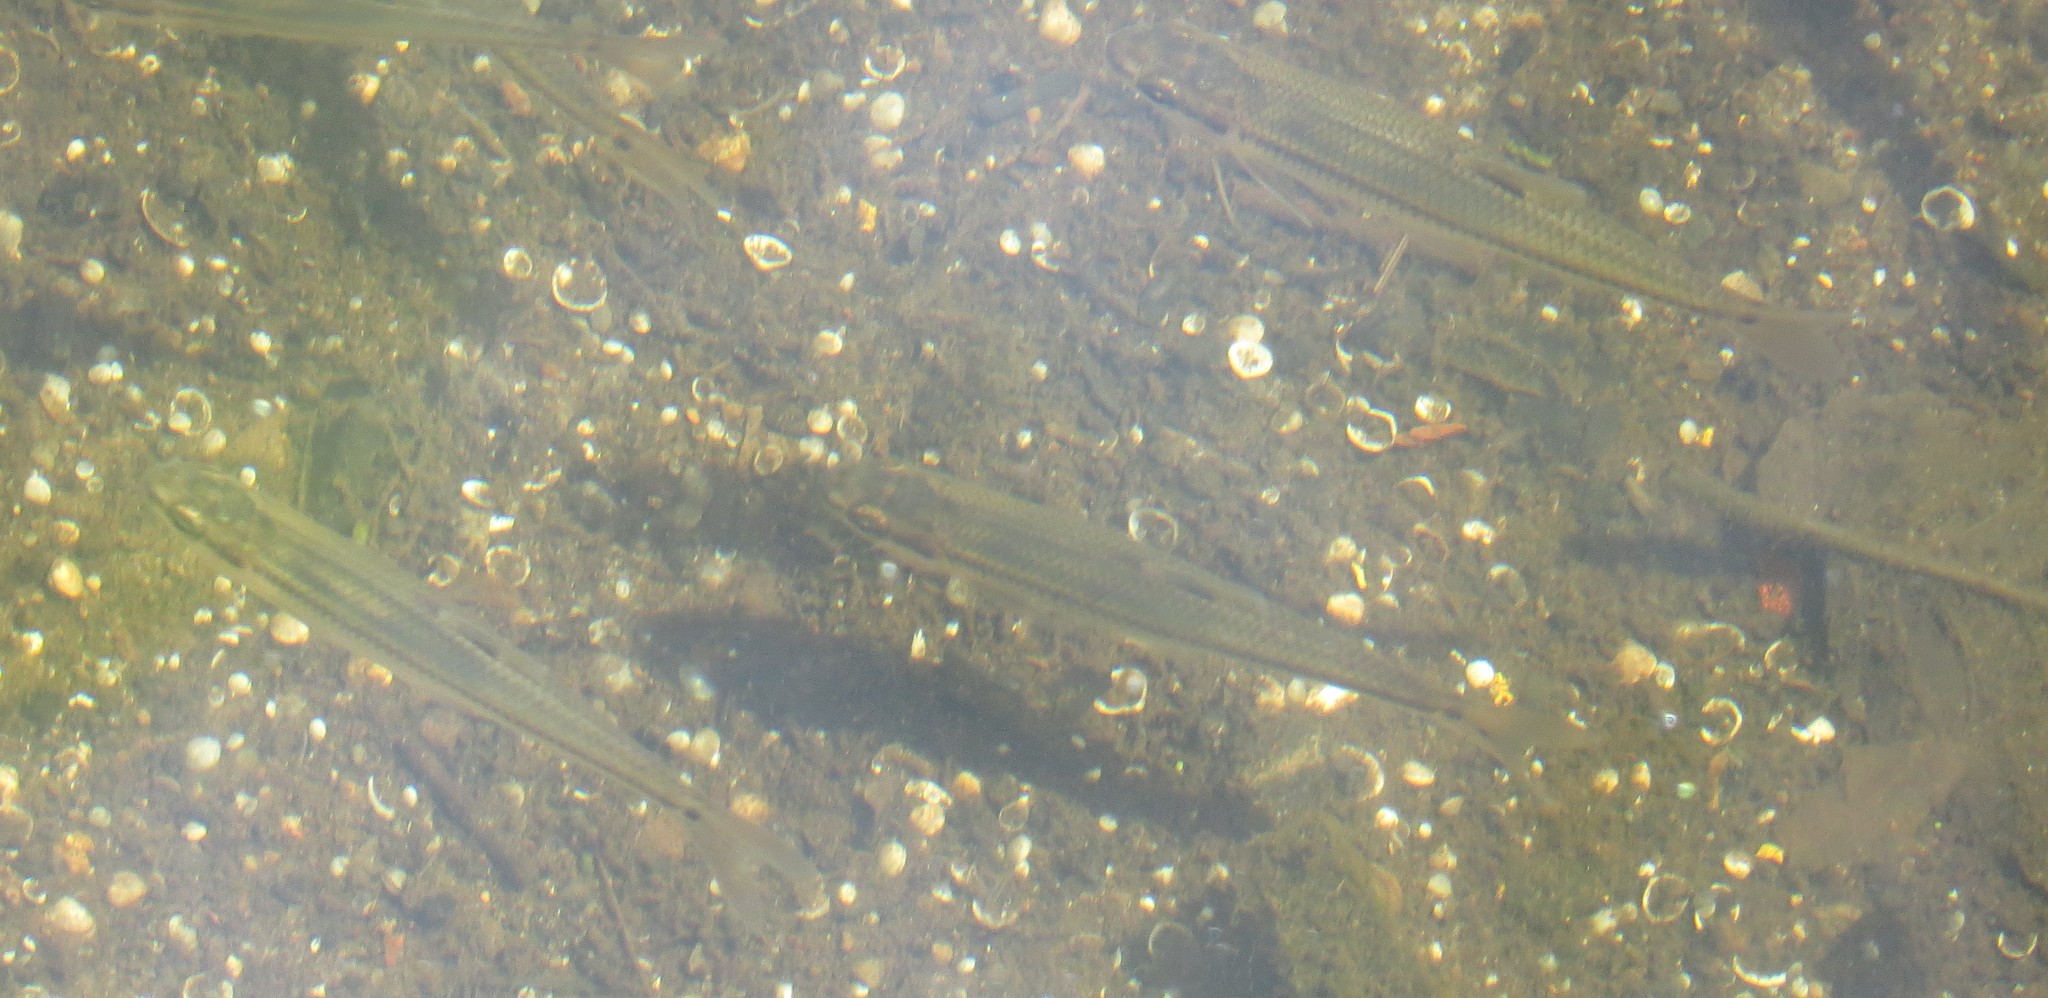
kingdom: Animalia
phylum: Chordata
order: Cypriniformes
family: Cyprinidae
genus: Pimephales
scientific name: Pimephales notatus
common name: Bluntnose minnow
